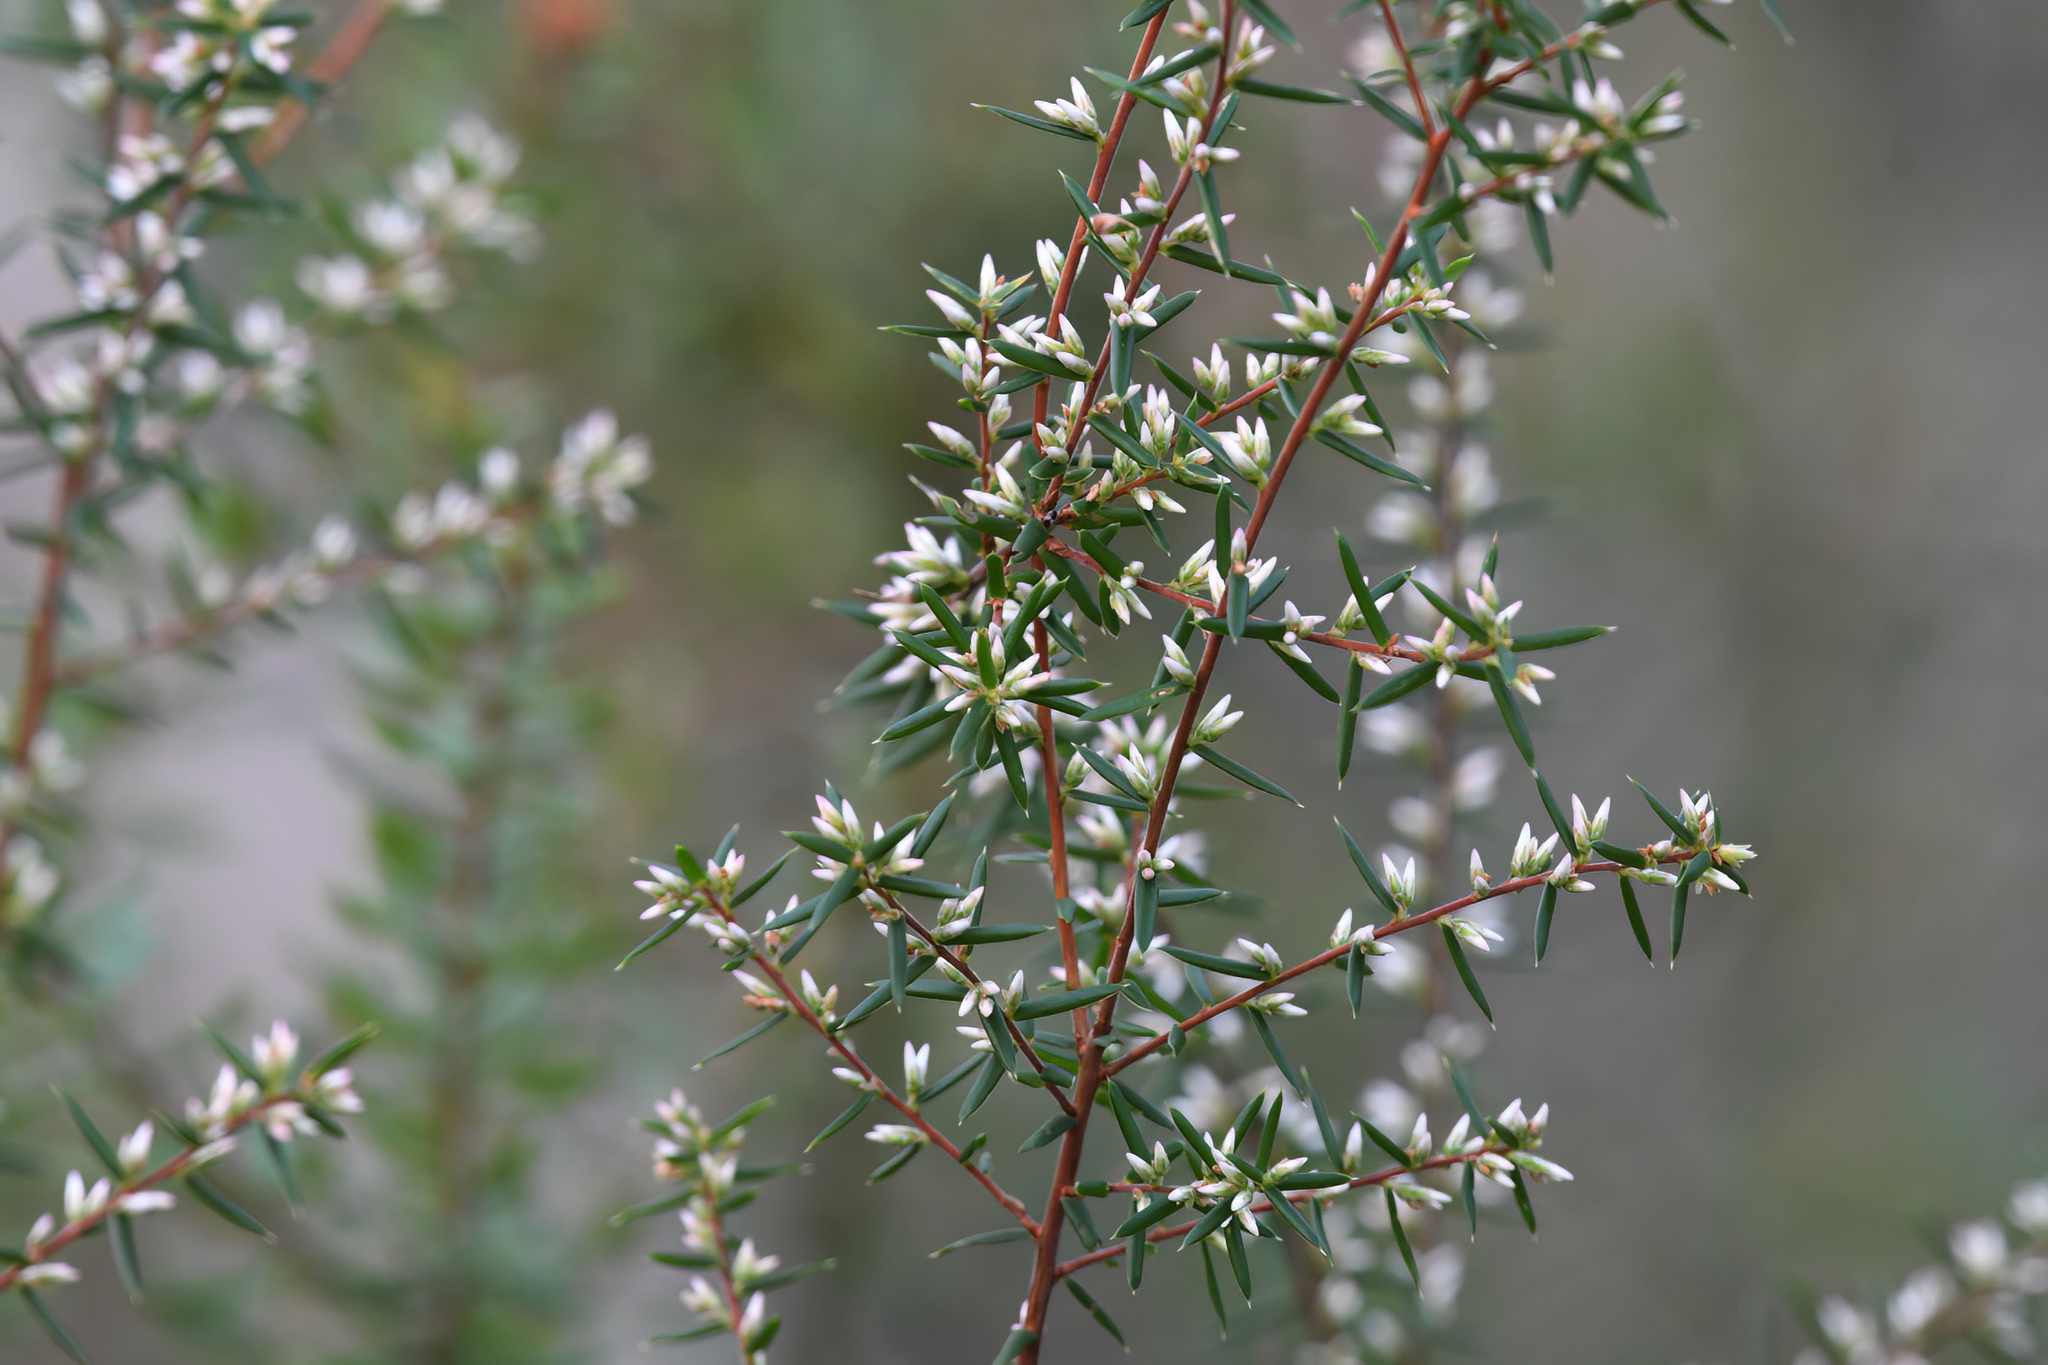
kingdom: Plantae
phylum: Tracheophyta
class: Magnoliopsida
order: Ericales
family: Ericaceae
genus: Styphelia
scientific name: Styphelia ericoides
